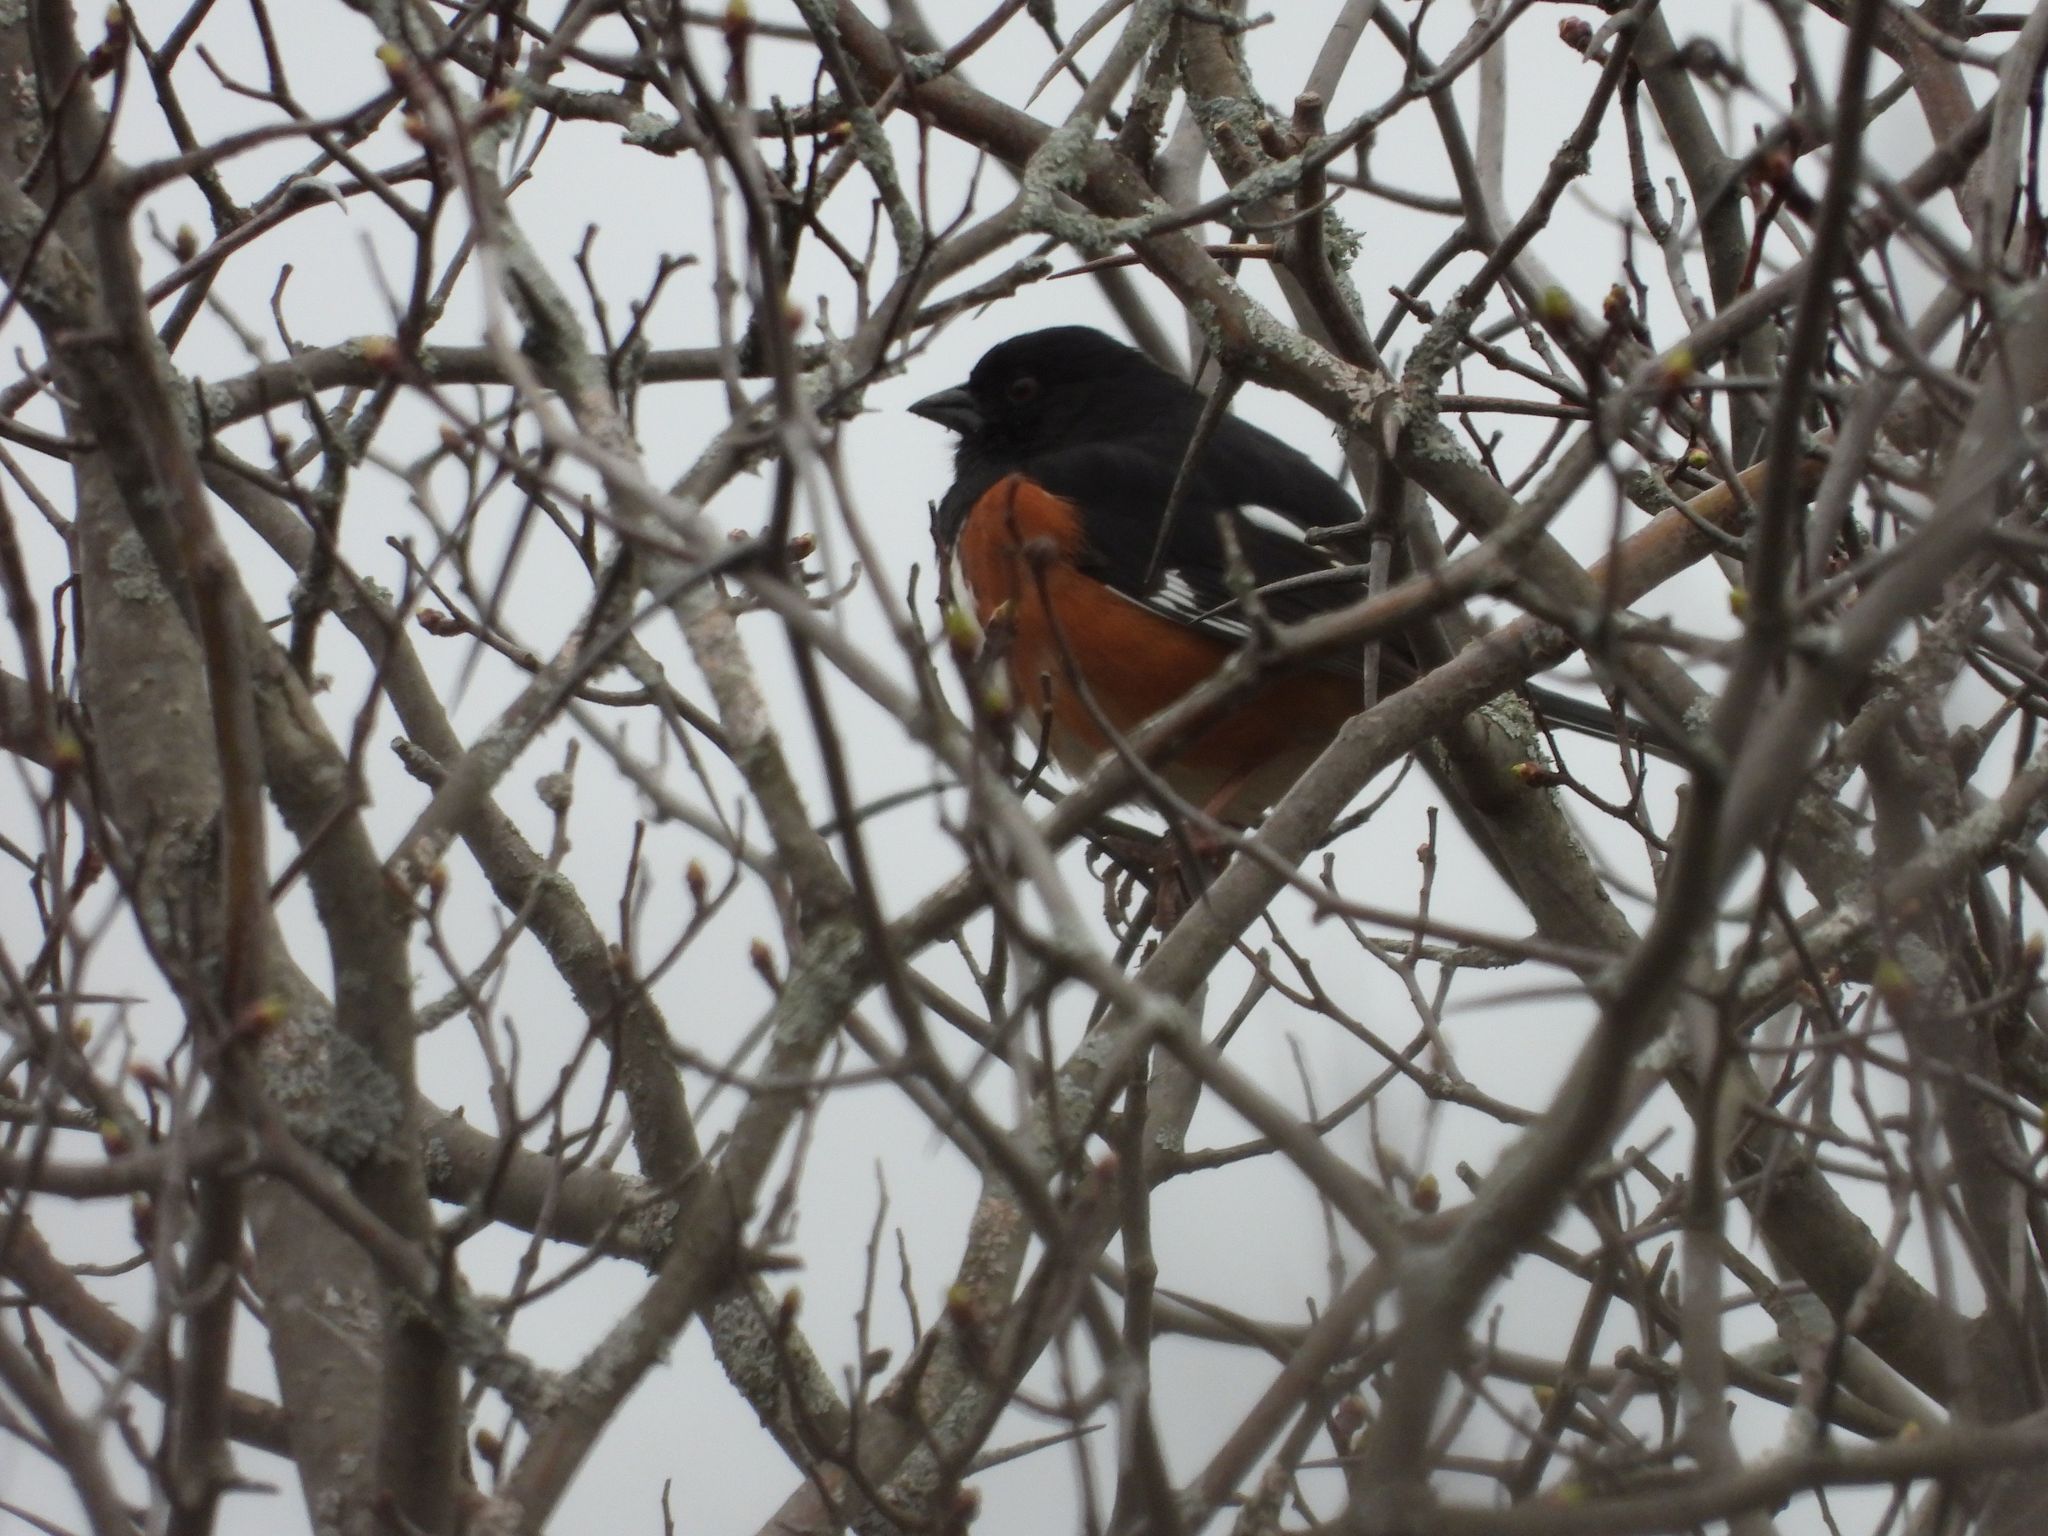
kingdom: Animalia
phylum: Chordata
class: Aves
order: Passeriformes
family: Passerellidae
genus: Pipilo
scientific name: Pipilo erythrophthalmus
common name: Eastern towhee
